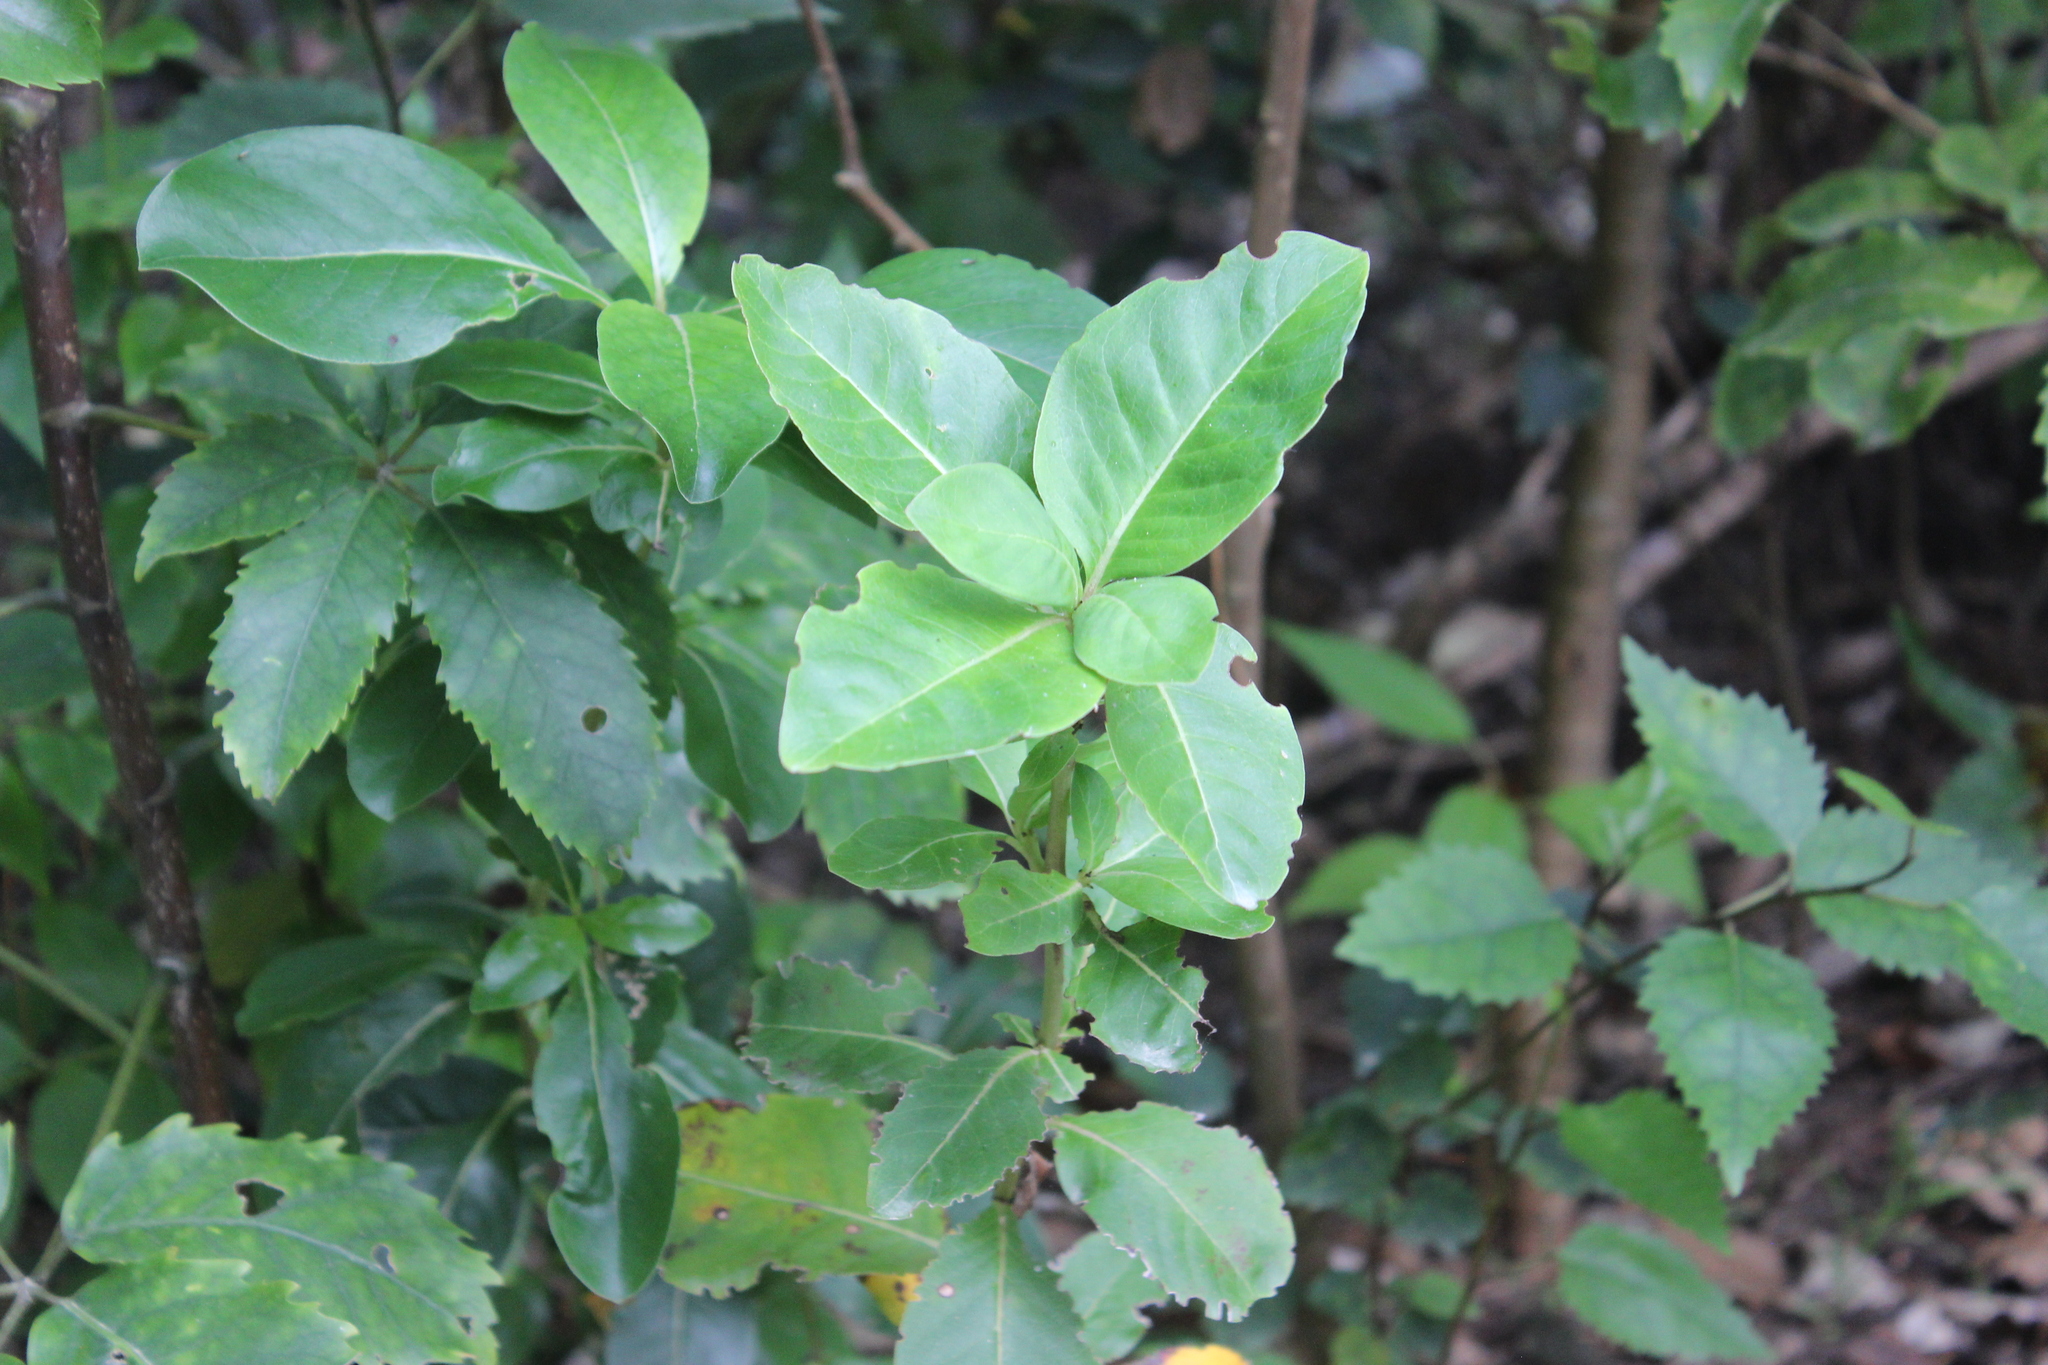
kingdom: Plantae
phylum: Tracheophyta
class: Magnoliopsida
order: Gentianales
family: Rubiaceae
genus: Coprosma
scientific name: Coprosma lucida
